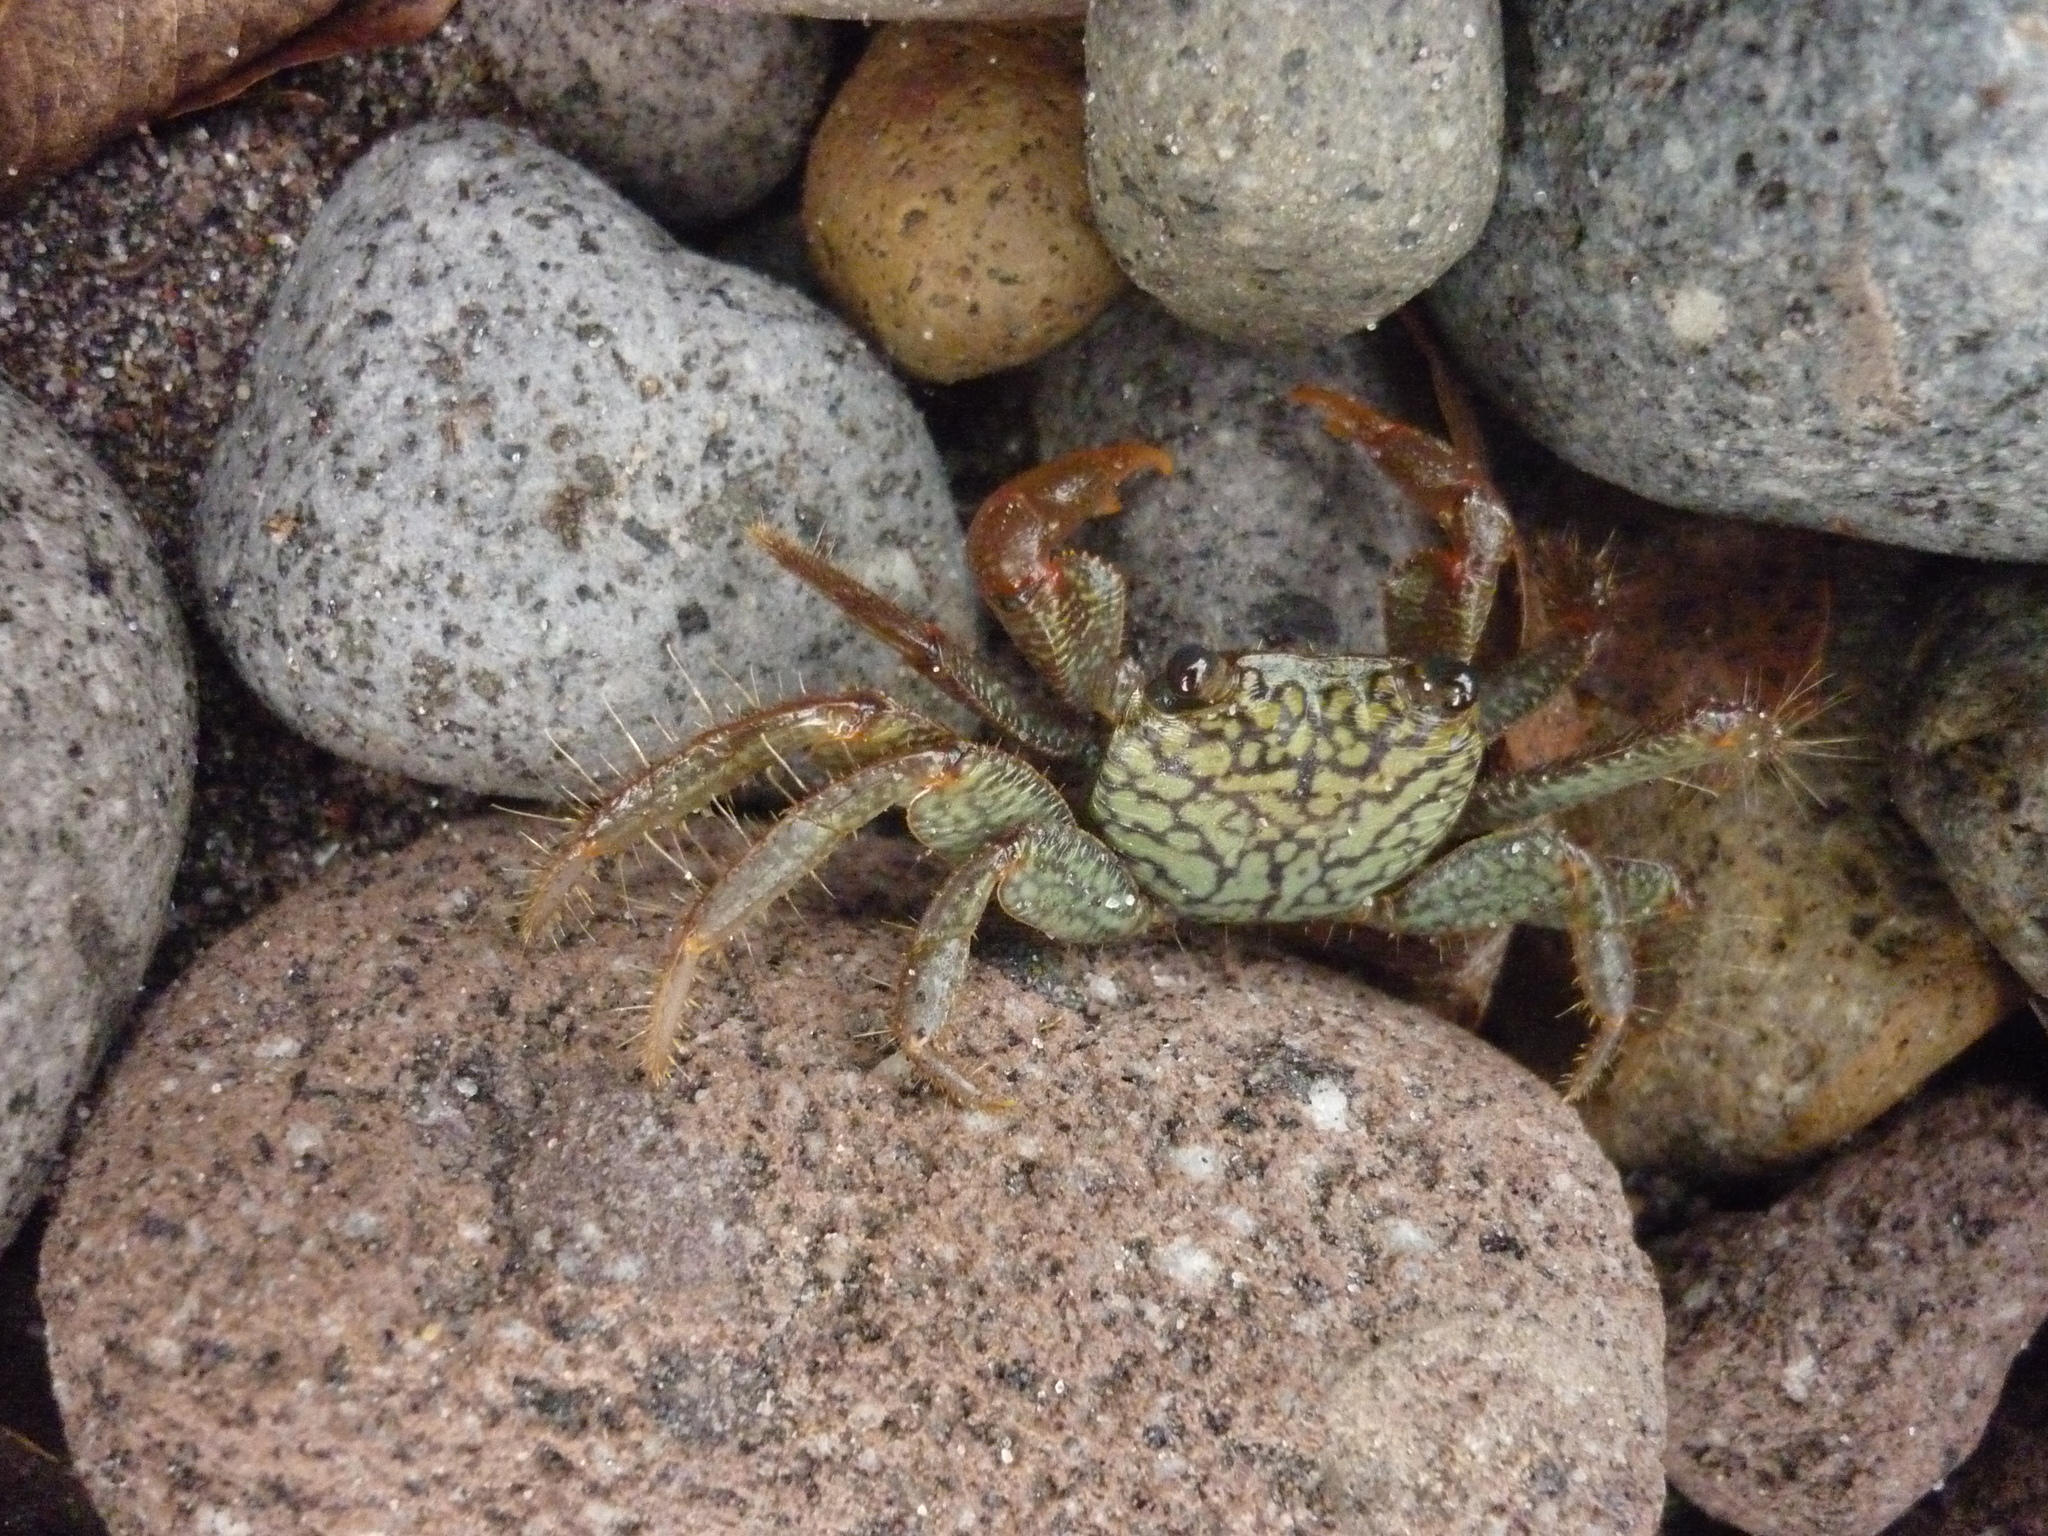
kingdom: Animalia
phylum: Arthropoda
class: Malacostraca
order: Decapoda
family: Grapsidae
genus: Geograpsus
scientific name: Geograpsus lividus
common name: Variegate shore crab
